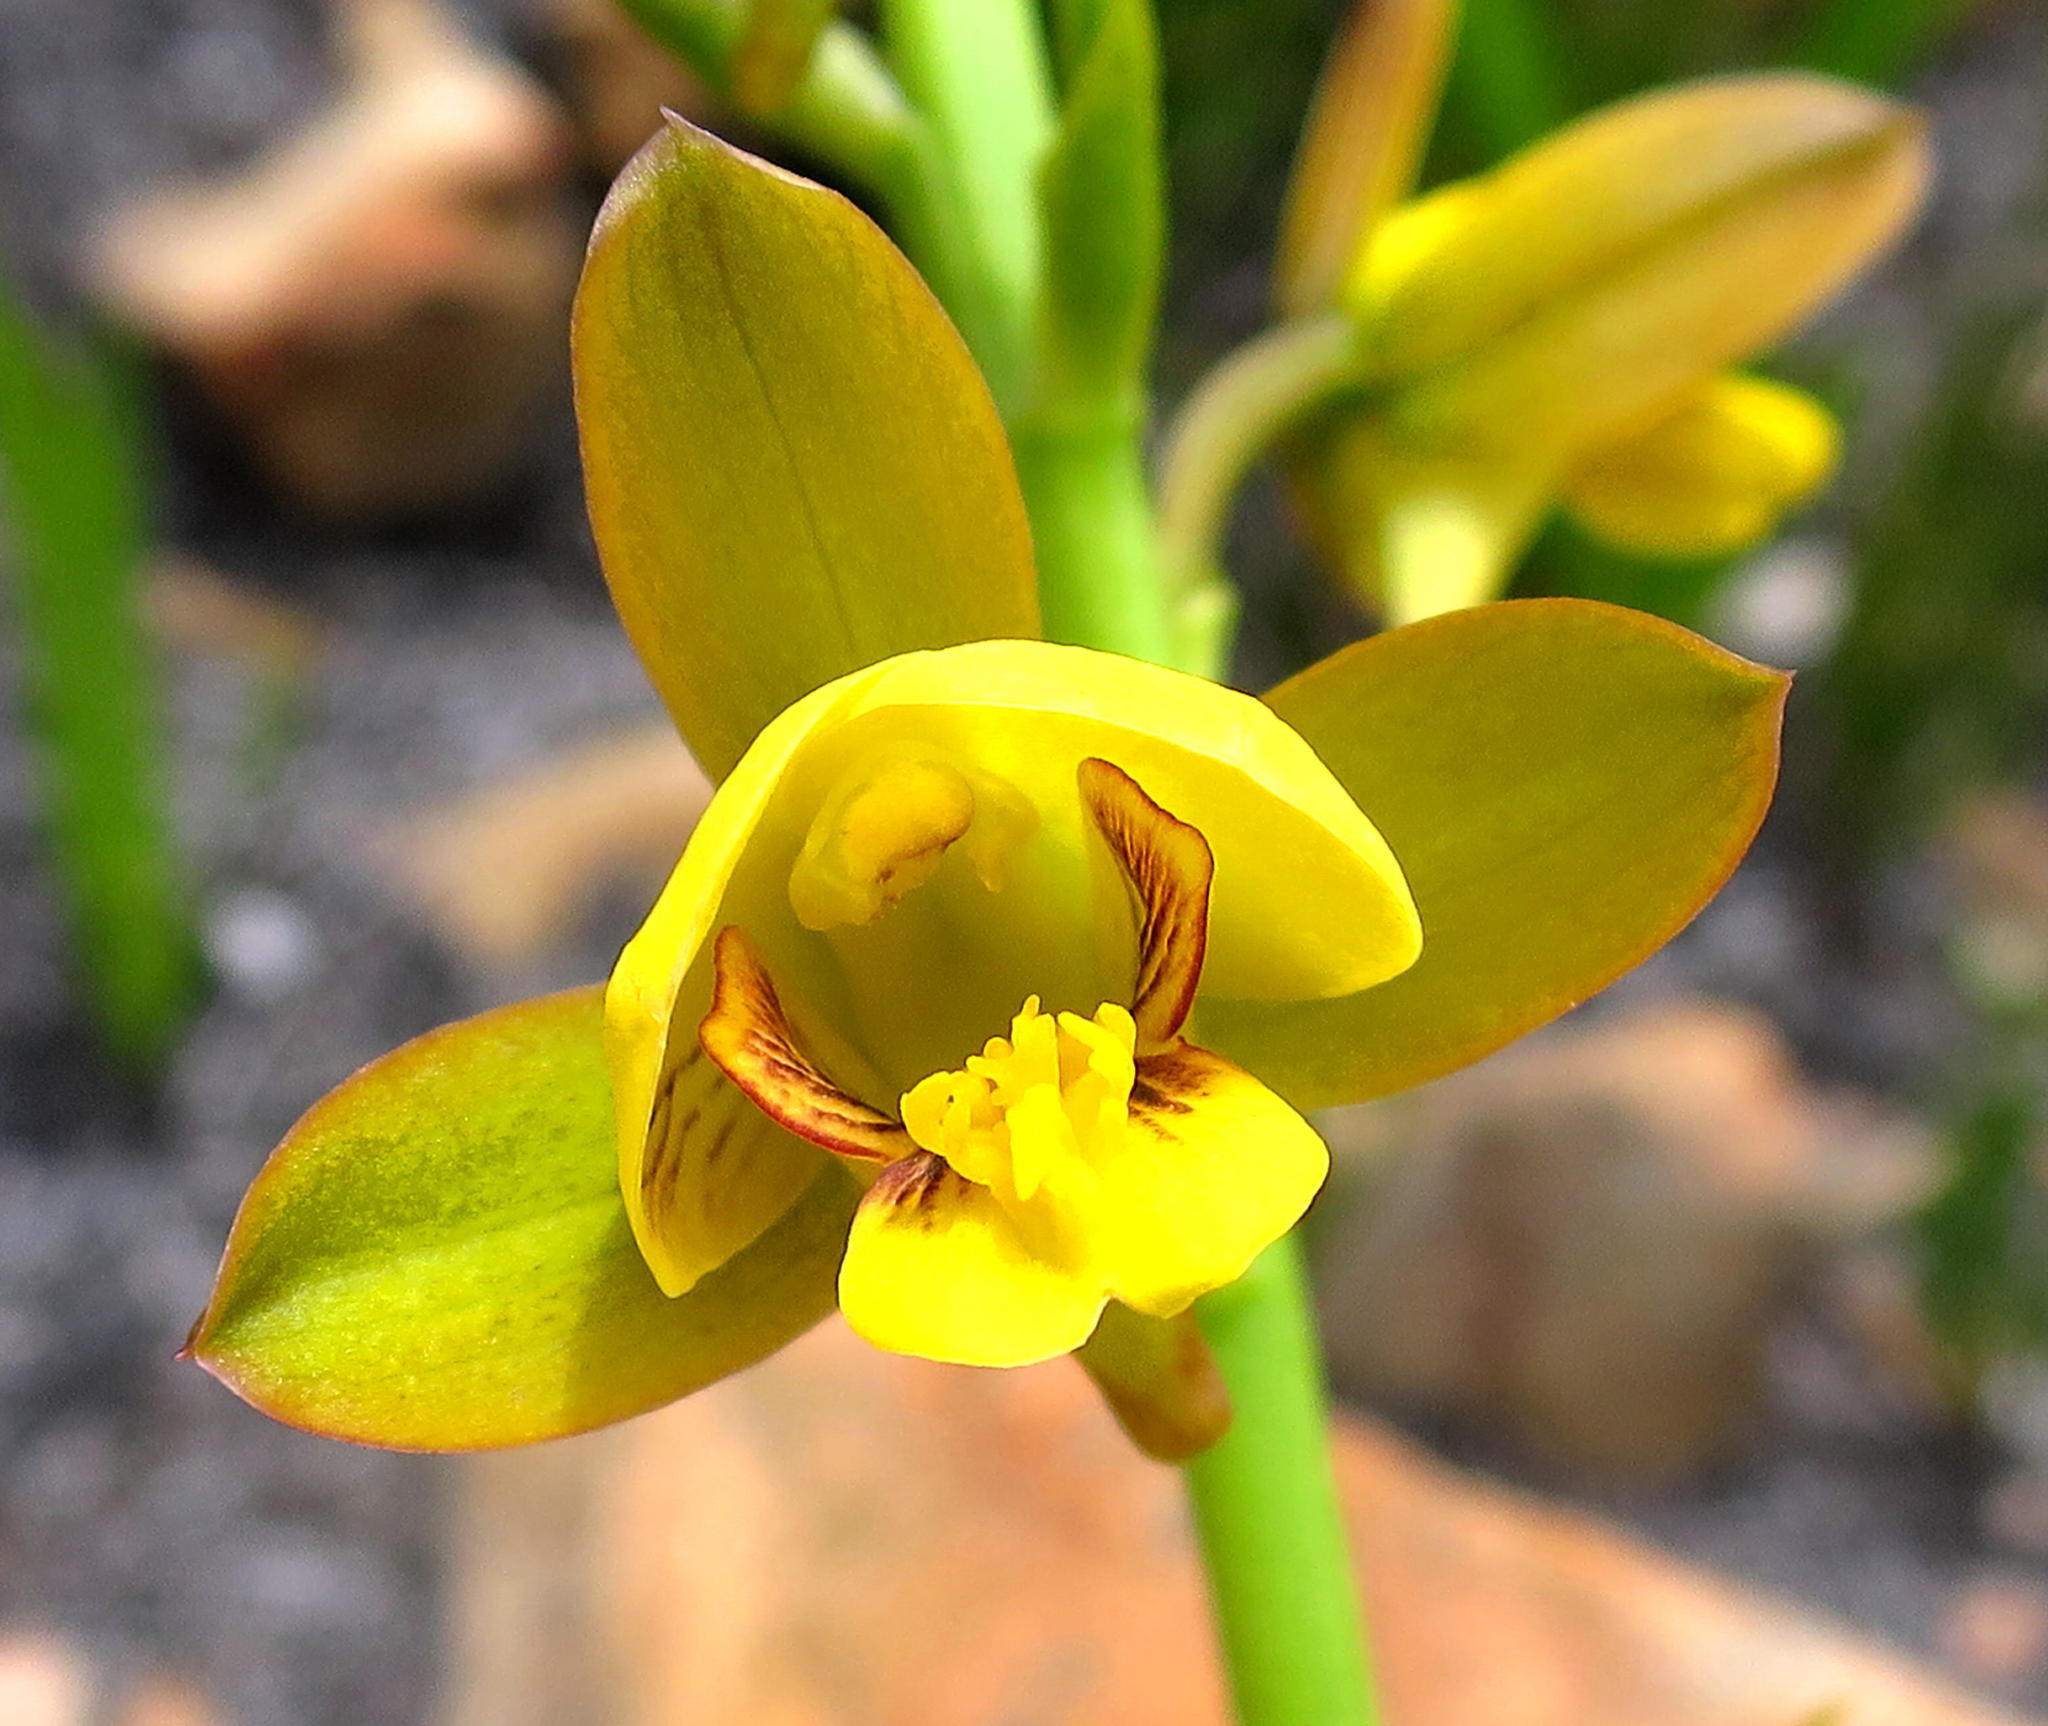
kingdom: Plantae
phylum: Tracheophyta
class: Liliopsida
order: Asparagales
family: Orchidaceae
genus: Eulophia
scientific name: Eulophia platypetala
